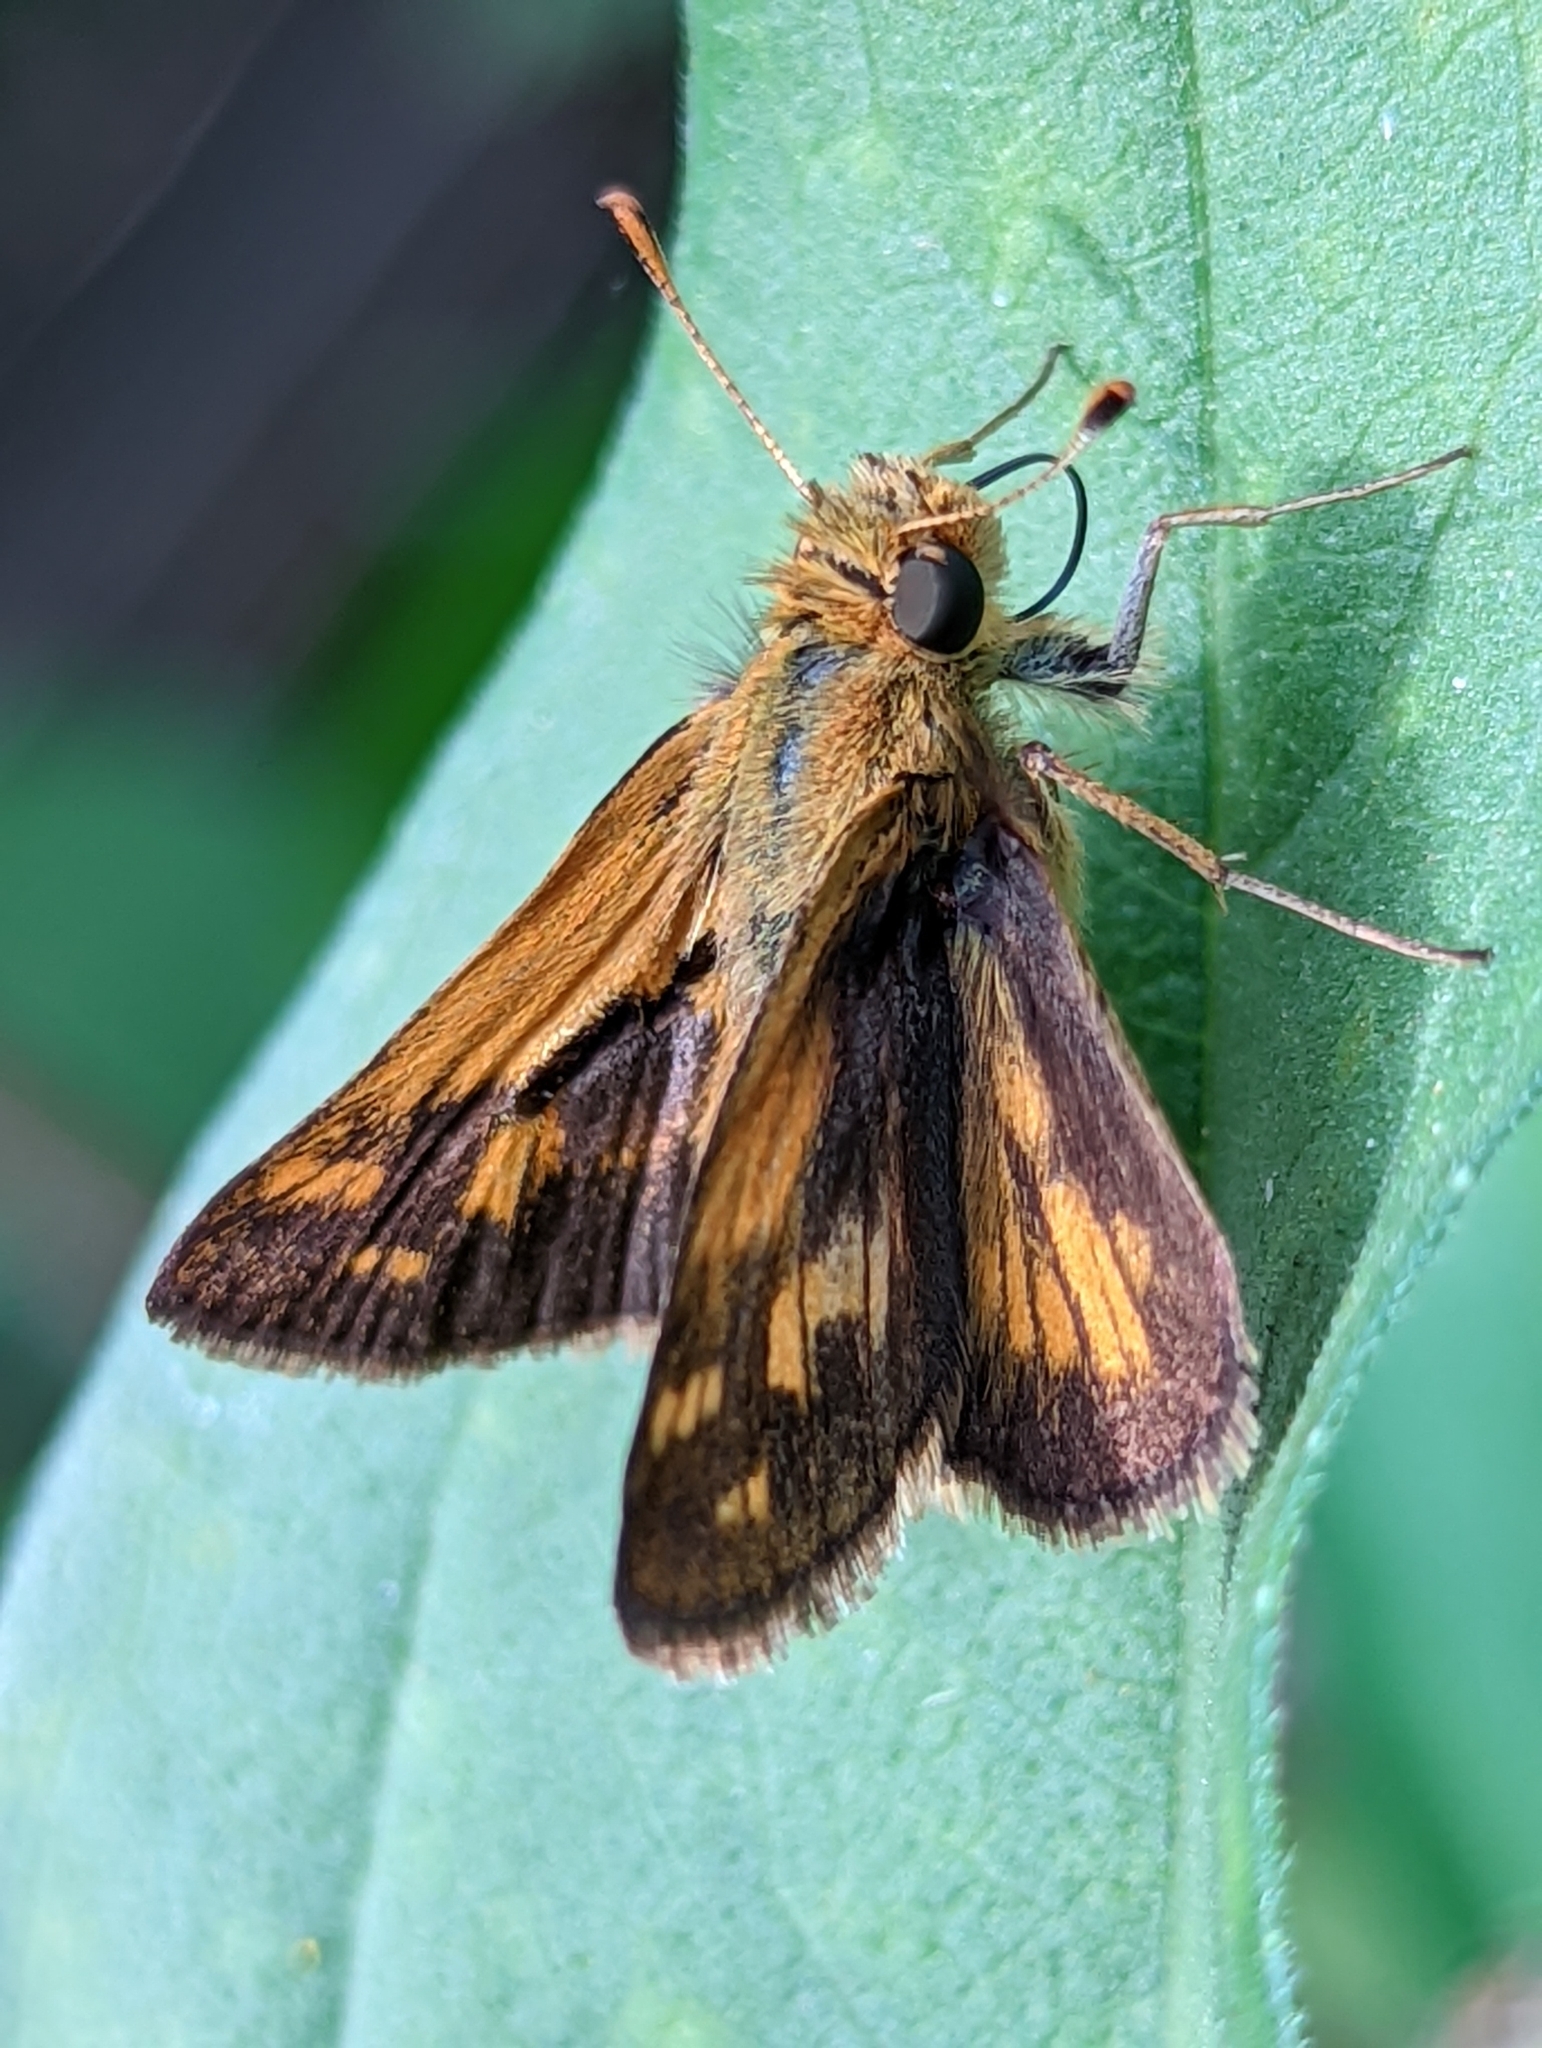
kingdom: Animalia
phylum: Arthropoda
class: Insecta
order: Lepidoptera
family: Hesperiidae
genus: Polites
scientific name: Polites coras
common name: Peck's skipper
